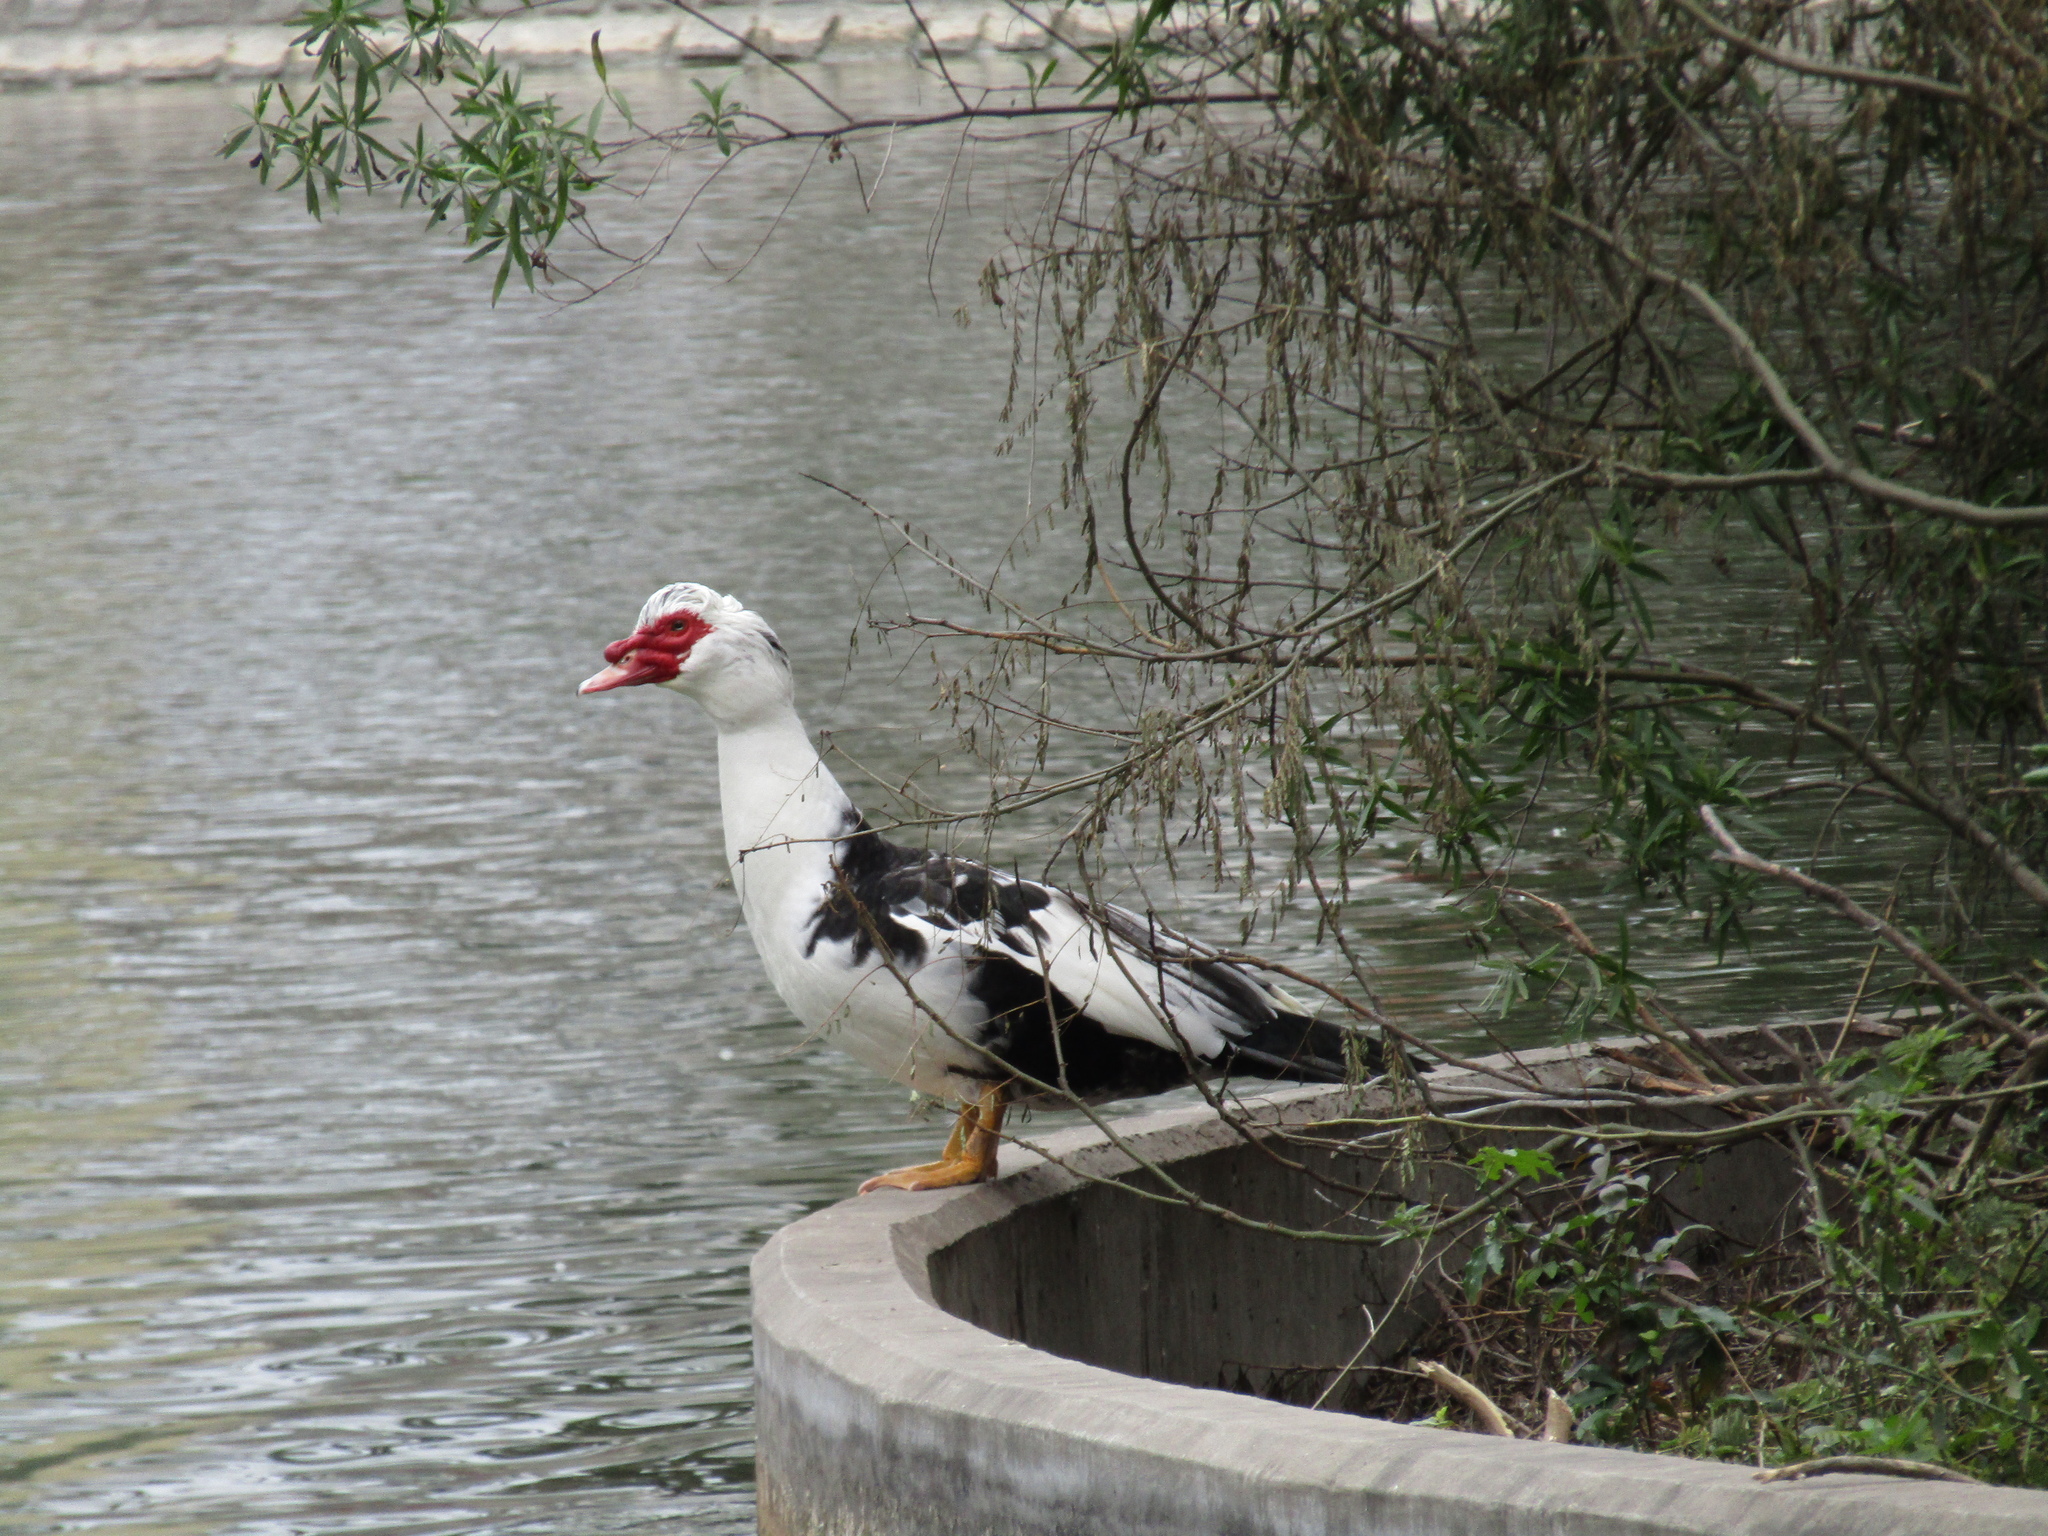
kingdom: Animalia
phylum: Chordata
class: Aves
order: Anseriformes
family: Anatidae
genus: Cairina
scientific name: Cairina moschata
